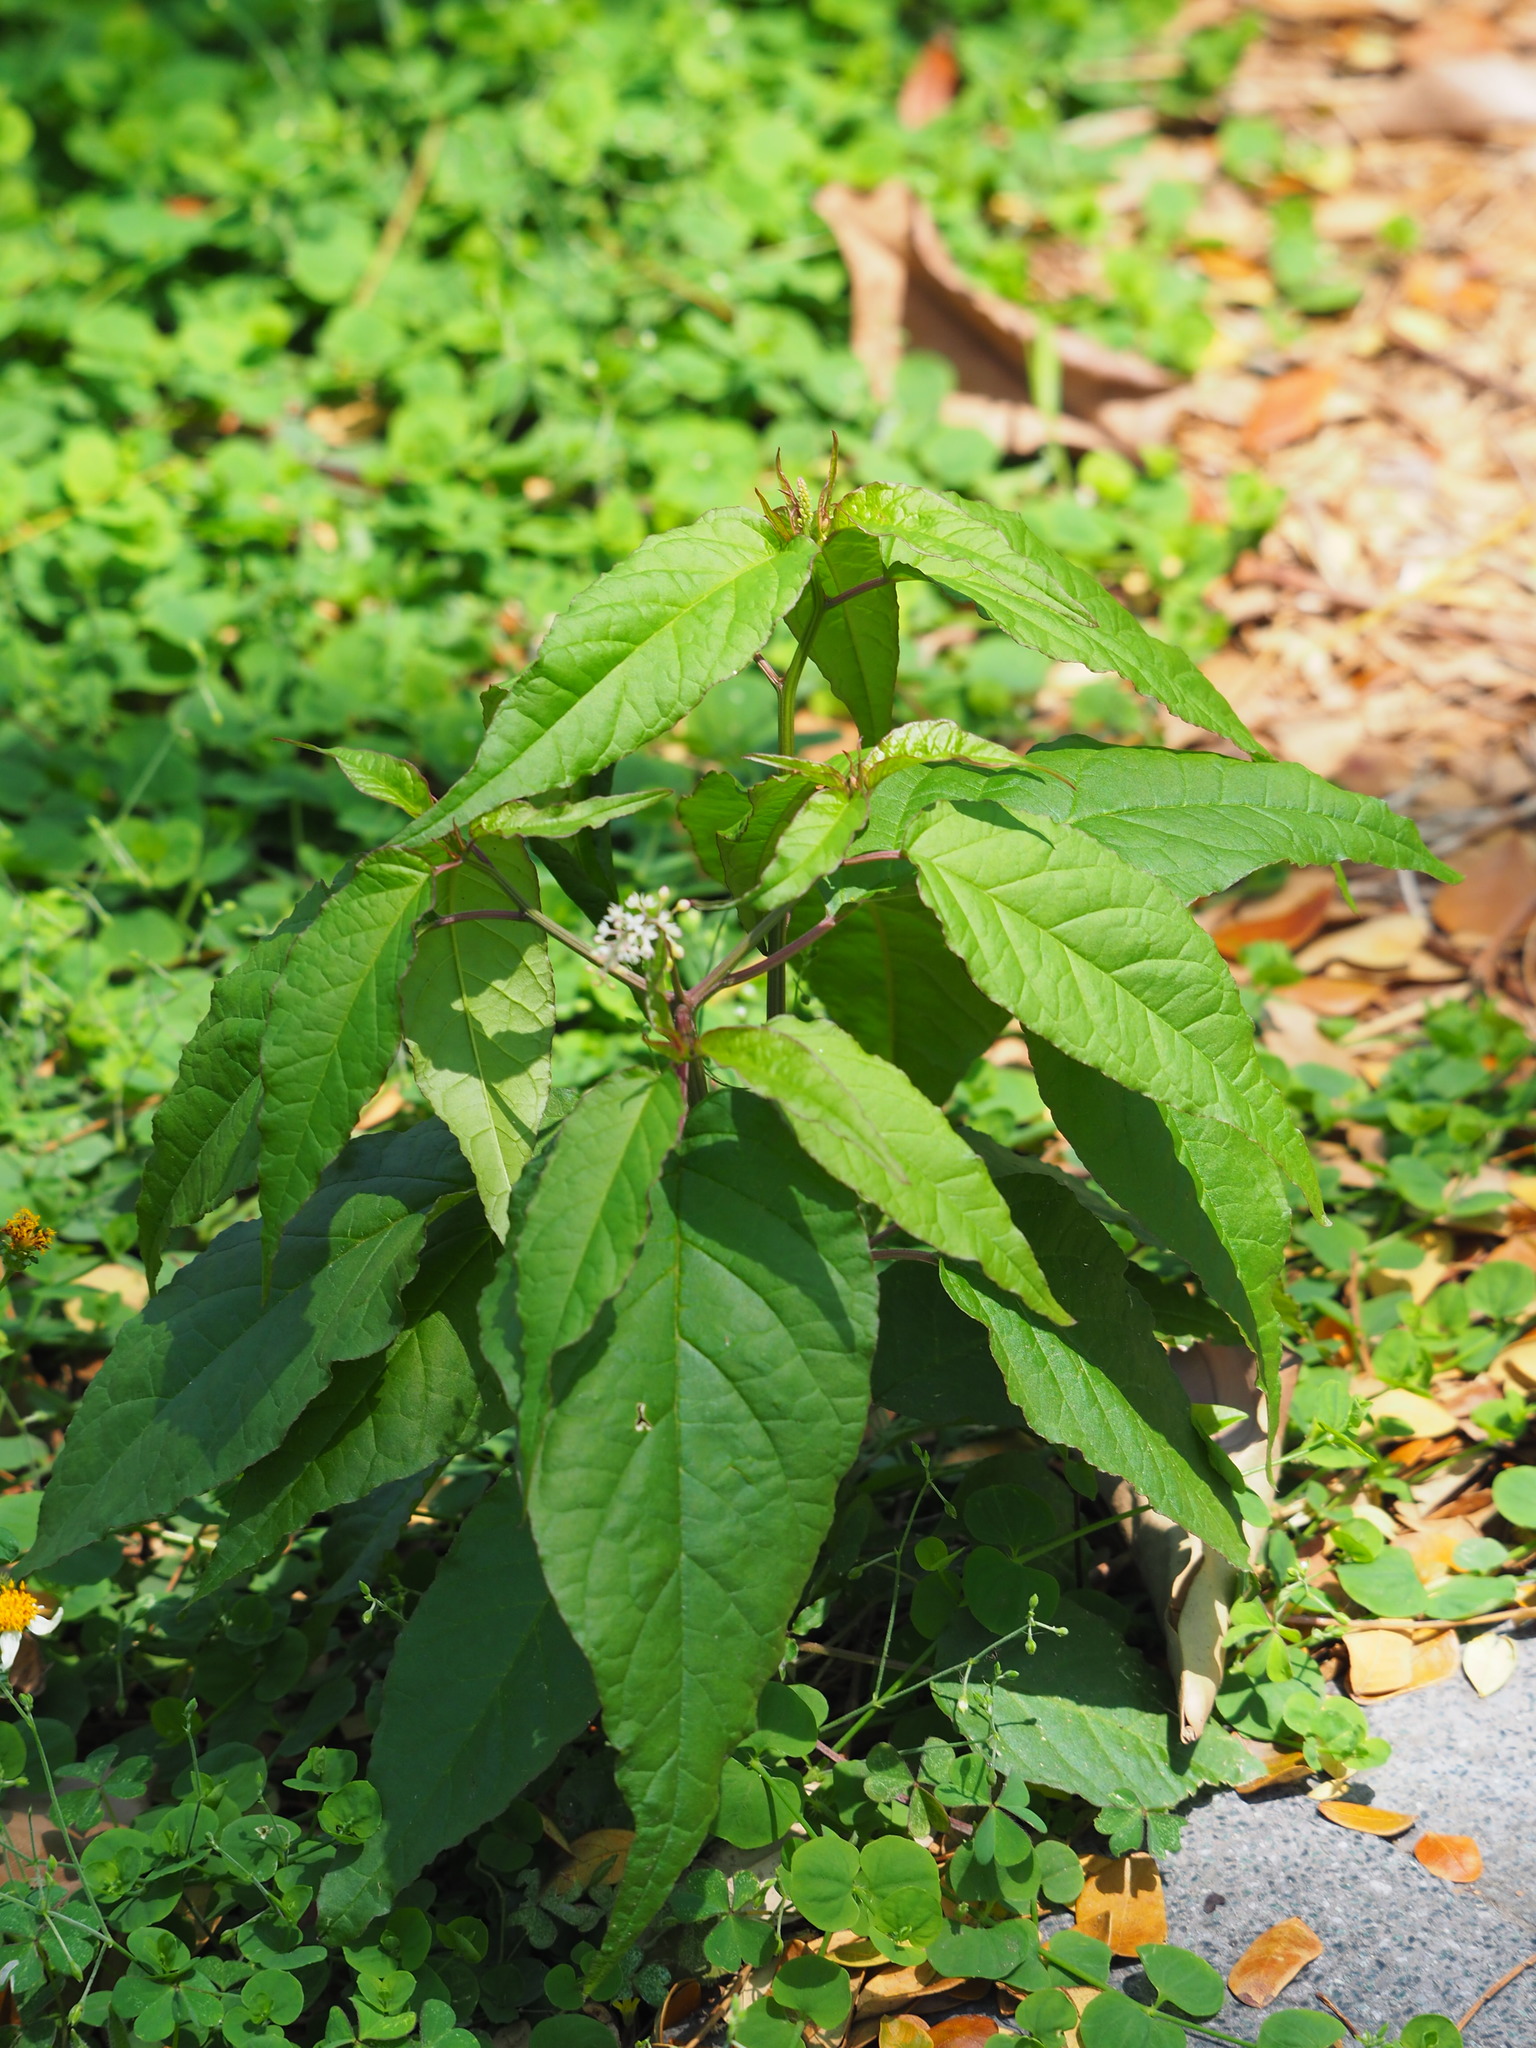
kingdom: Plantae
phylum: Tracheophyta
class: Magnoliopsida
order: Caryophyllales
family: Phytolaccaceae
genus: Rivina
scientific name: Rivina humilis
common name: Rougeplant
